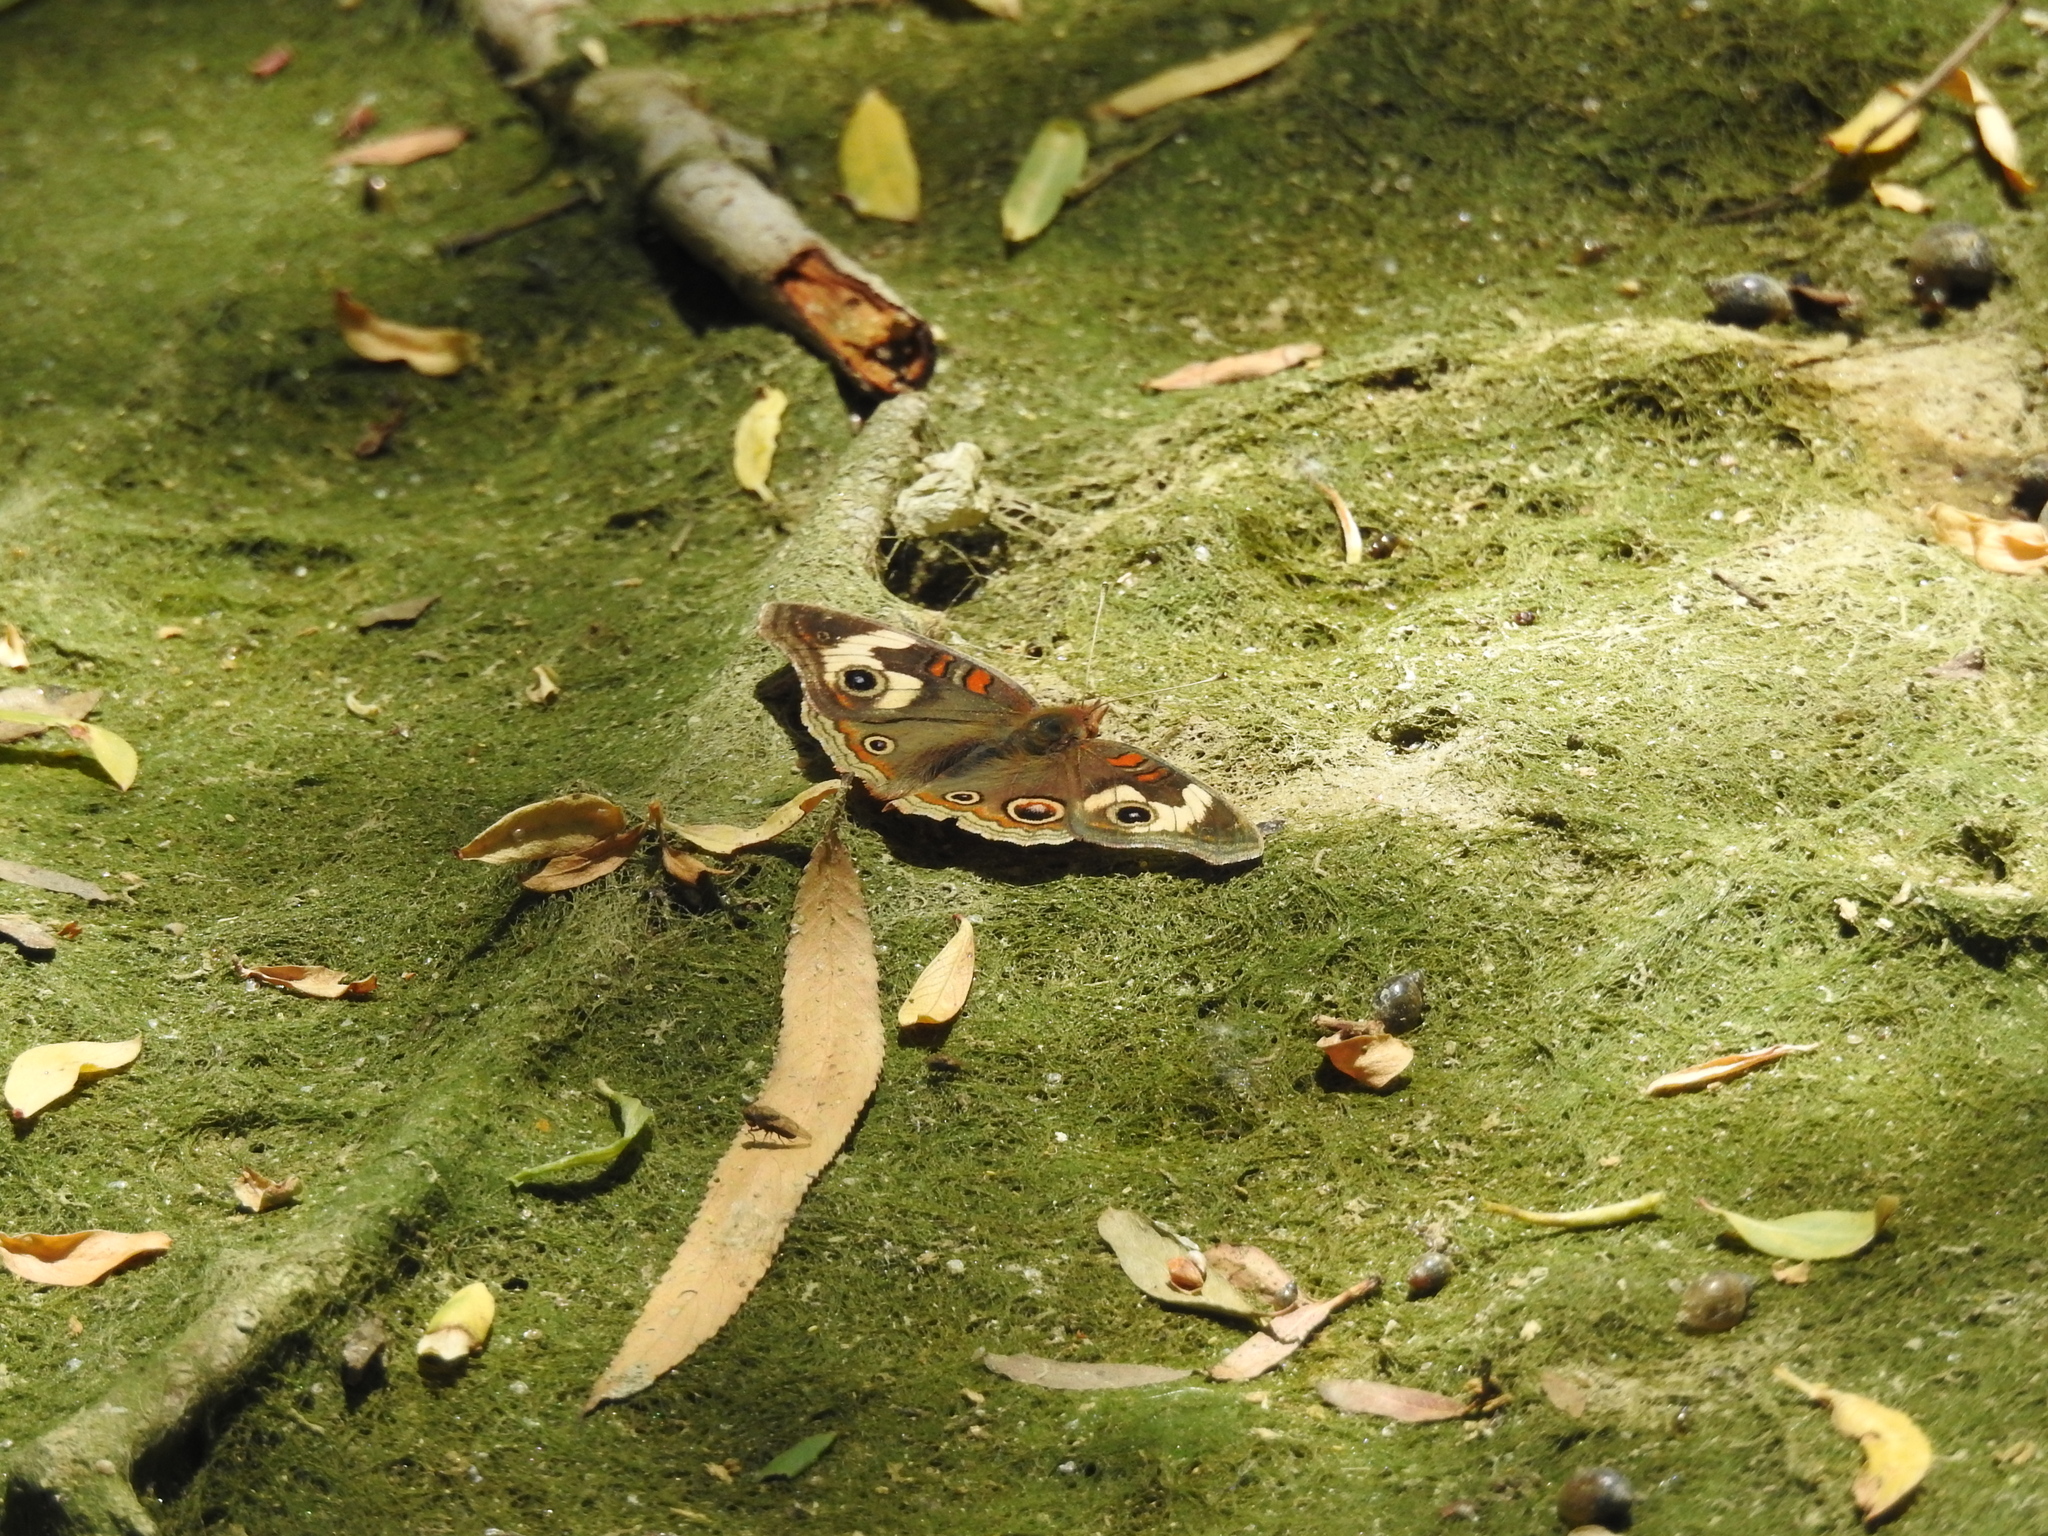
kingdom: Animalia
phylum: Arthropoda
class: Insecta
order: Lepidoptera
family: Nymphalidae
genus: Junonia
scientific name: Junonia grisea
